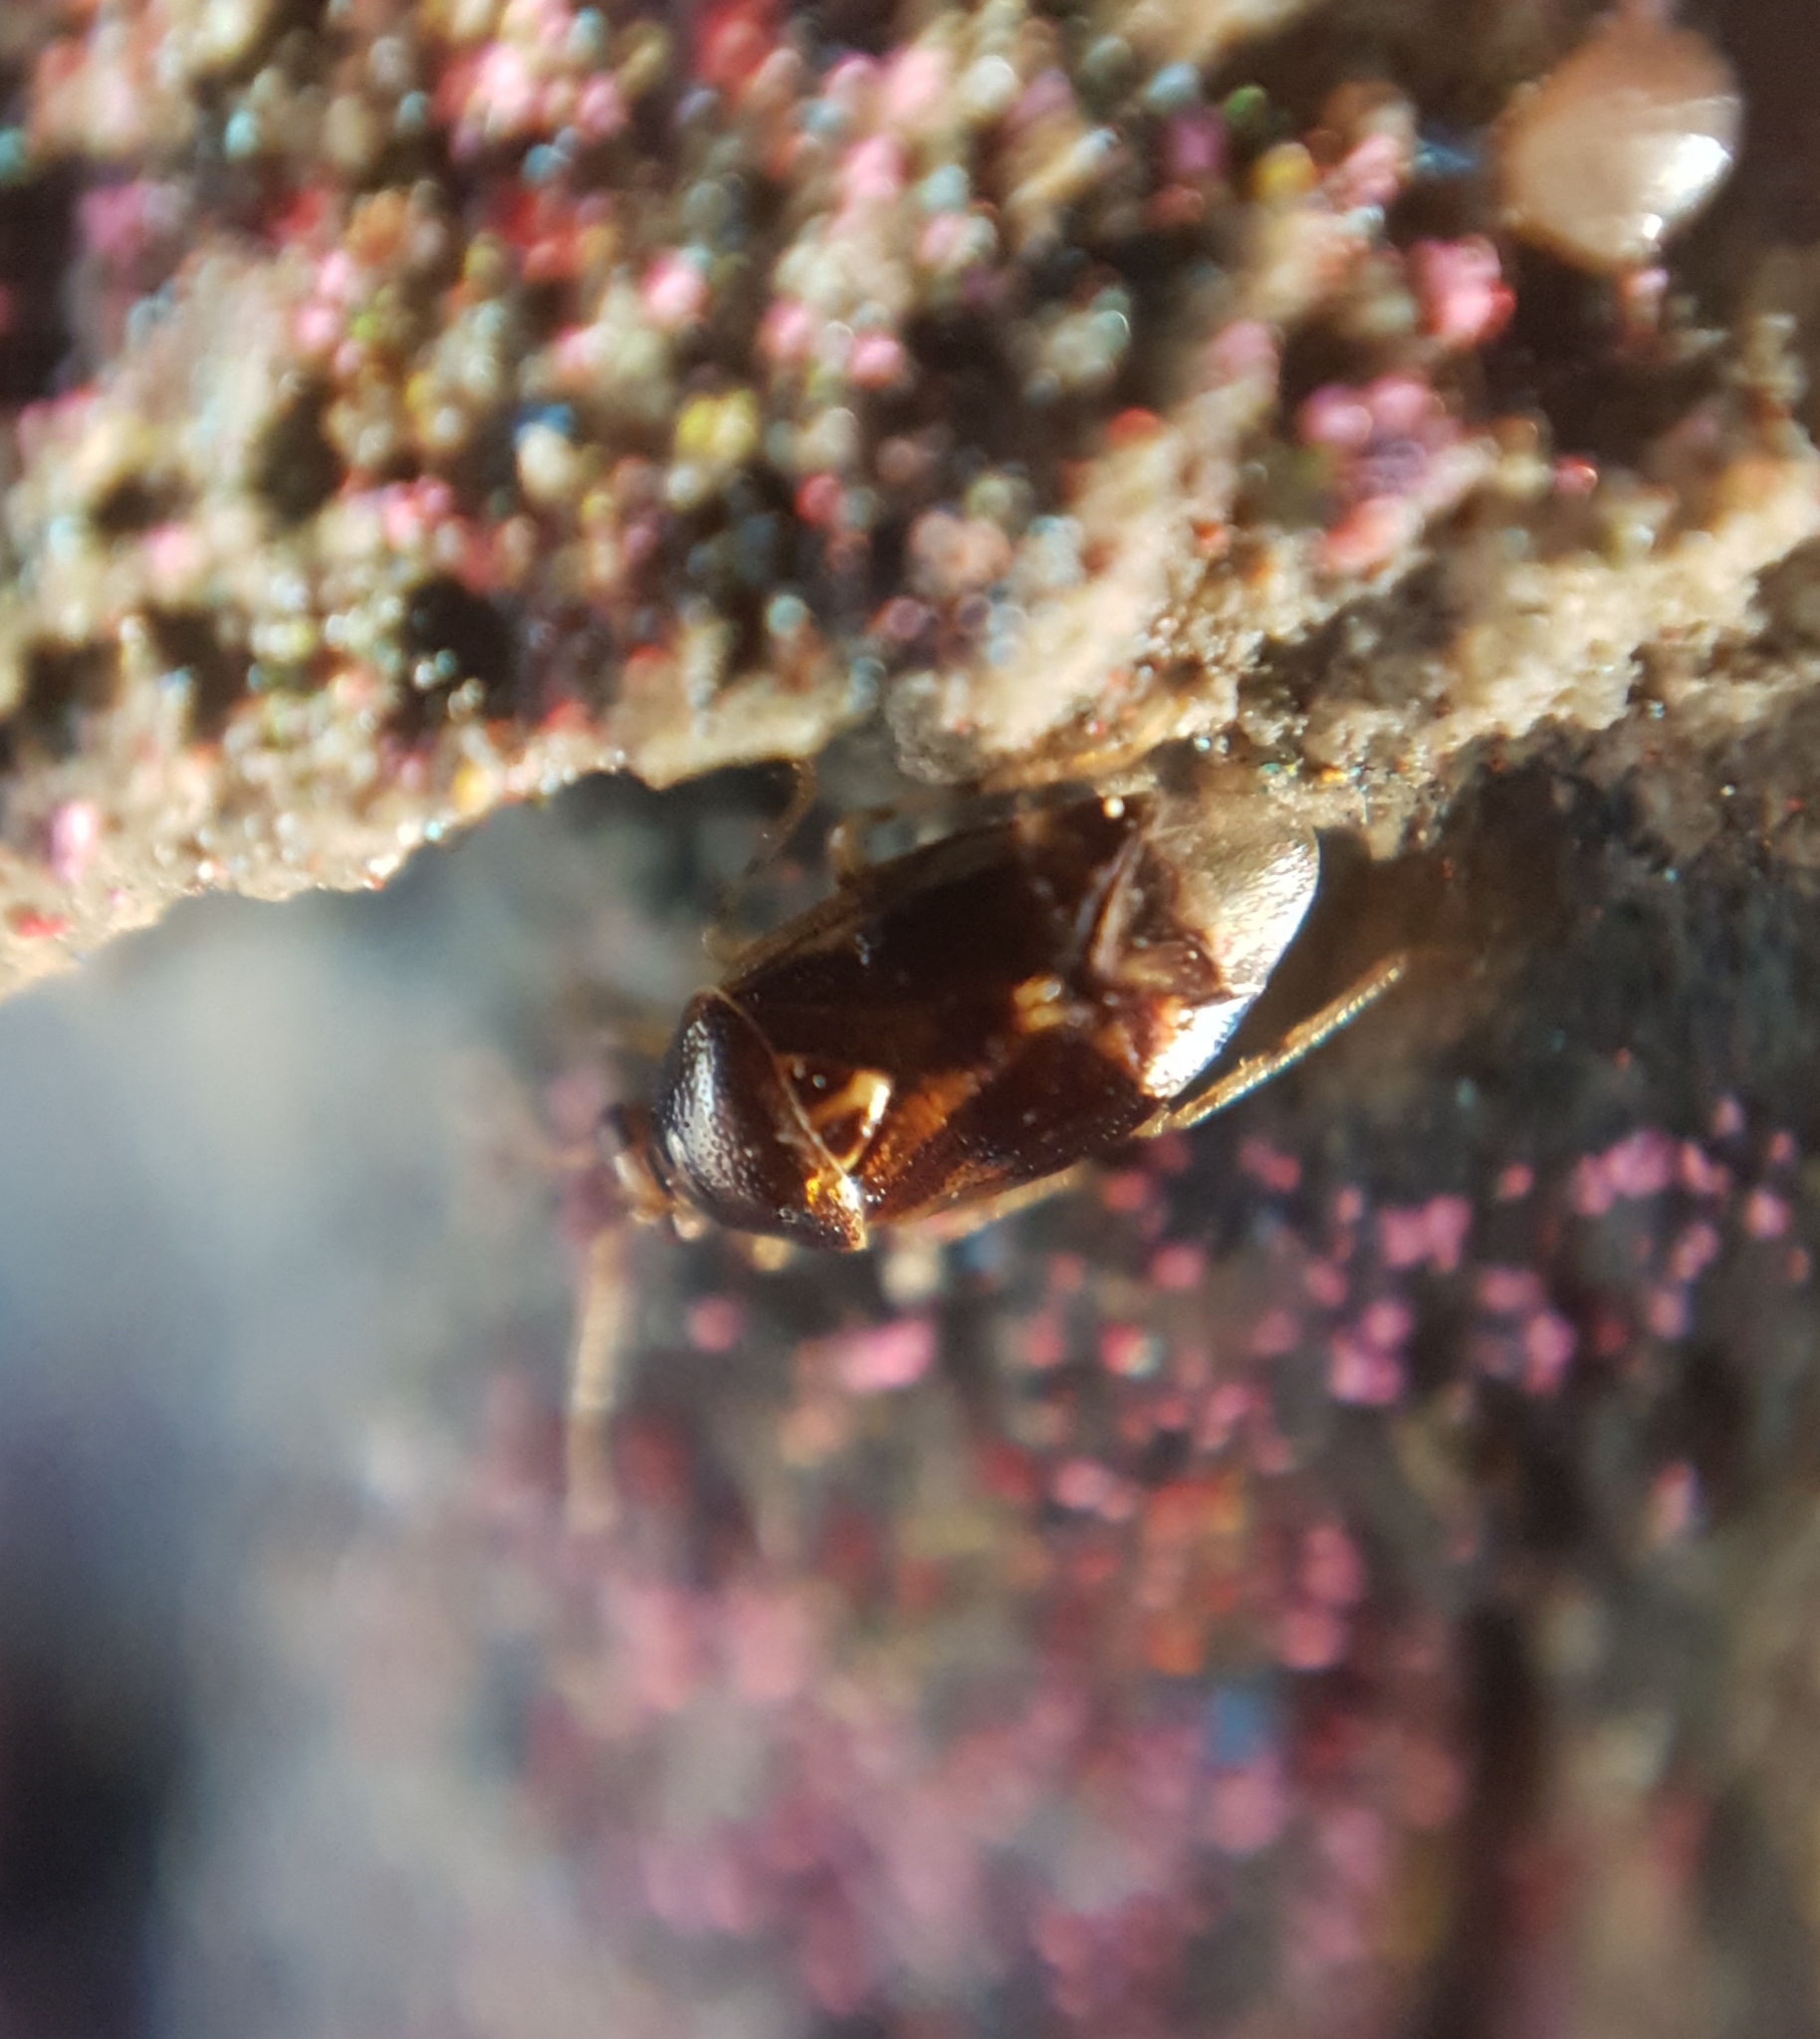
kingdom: Animalia
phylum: Arthropoda
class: Insecta
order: Hemiptera
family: Miridae
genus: Deraeocoris
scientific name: Deraeocoris lutescens
